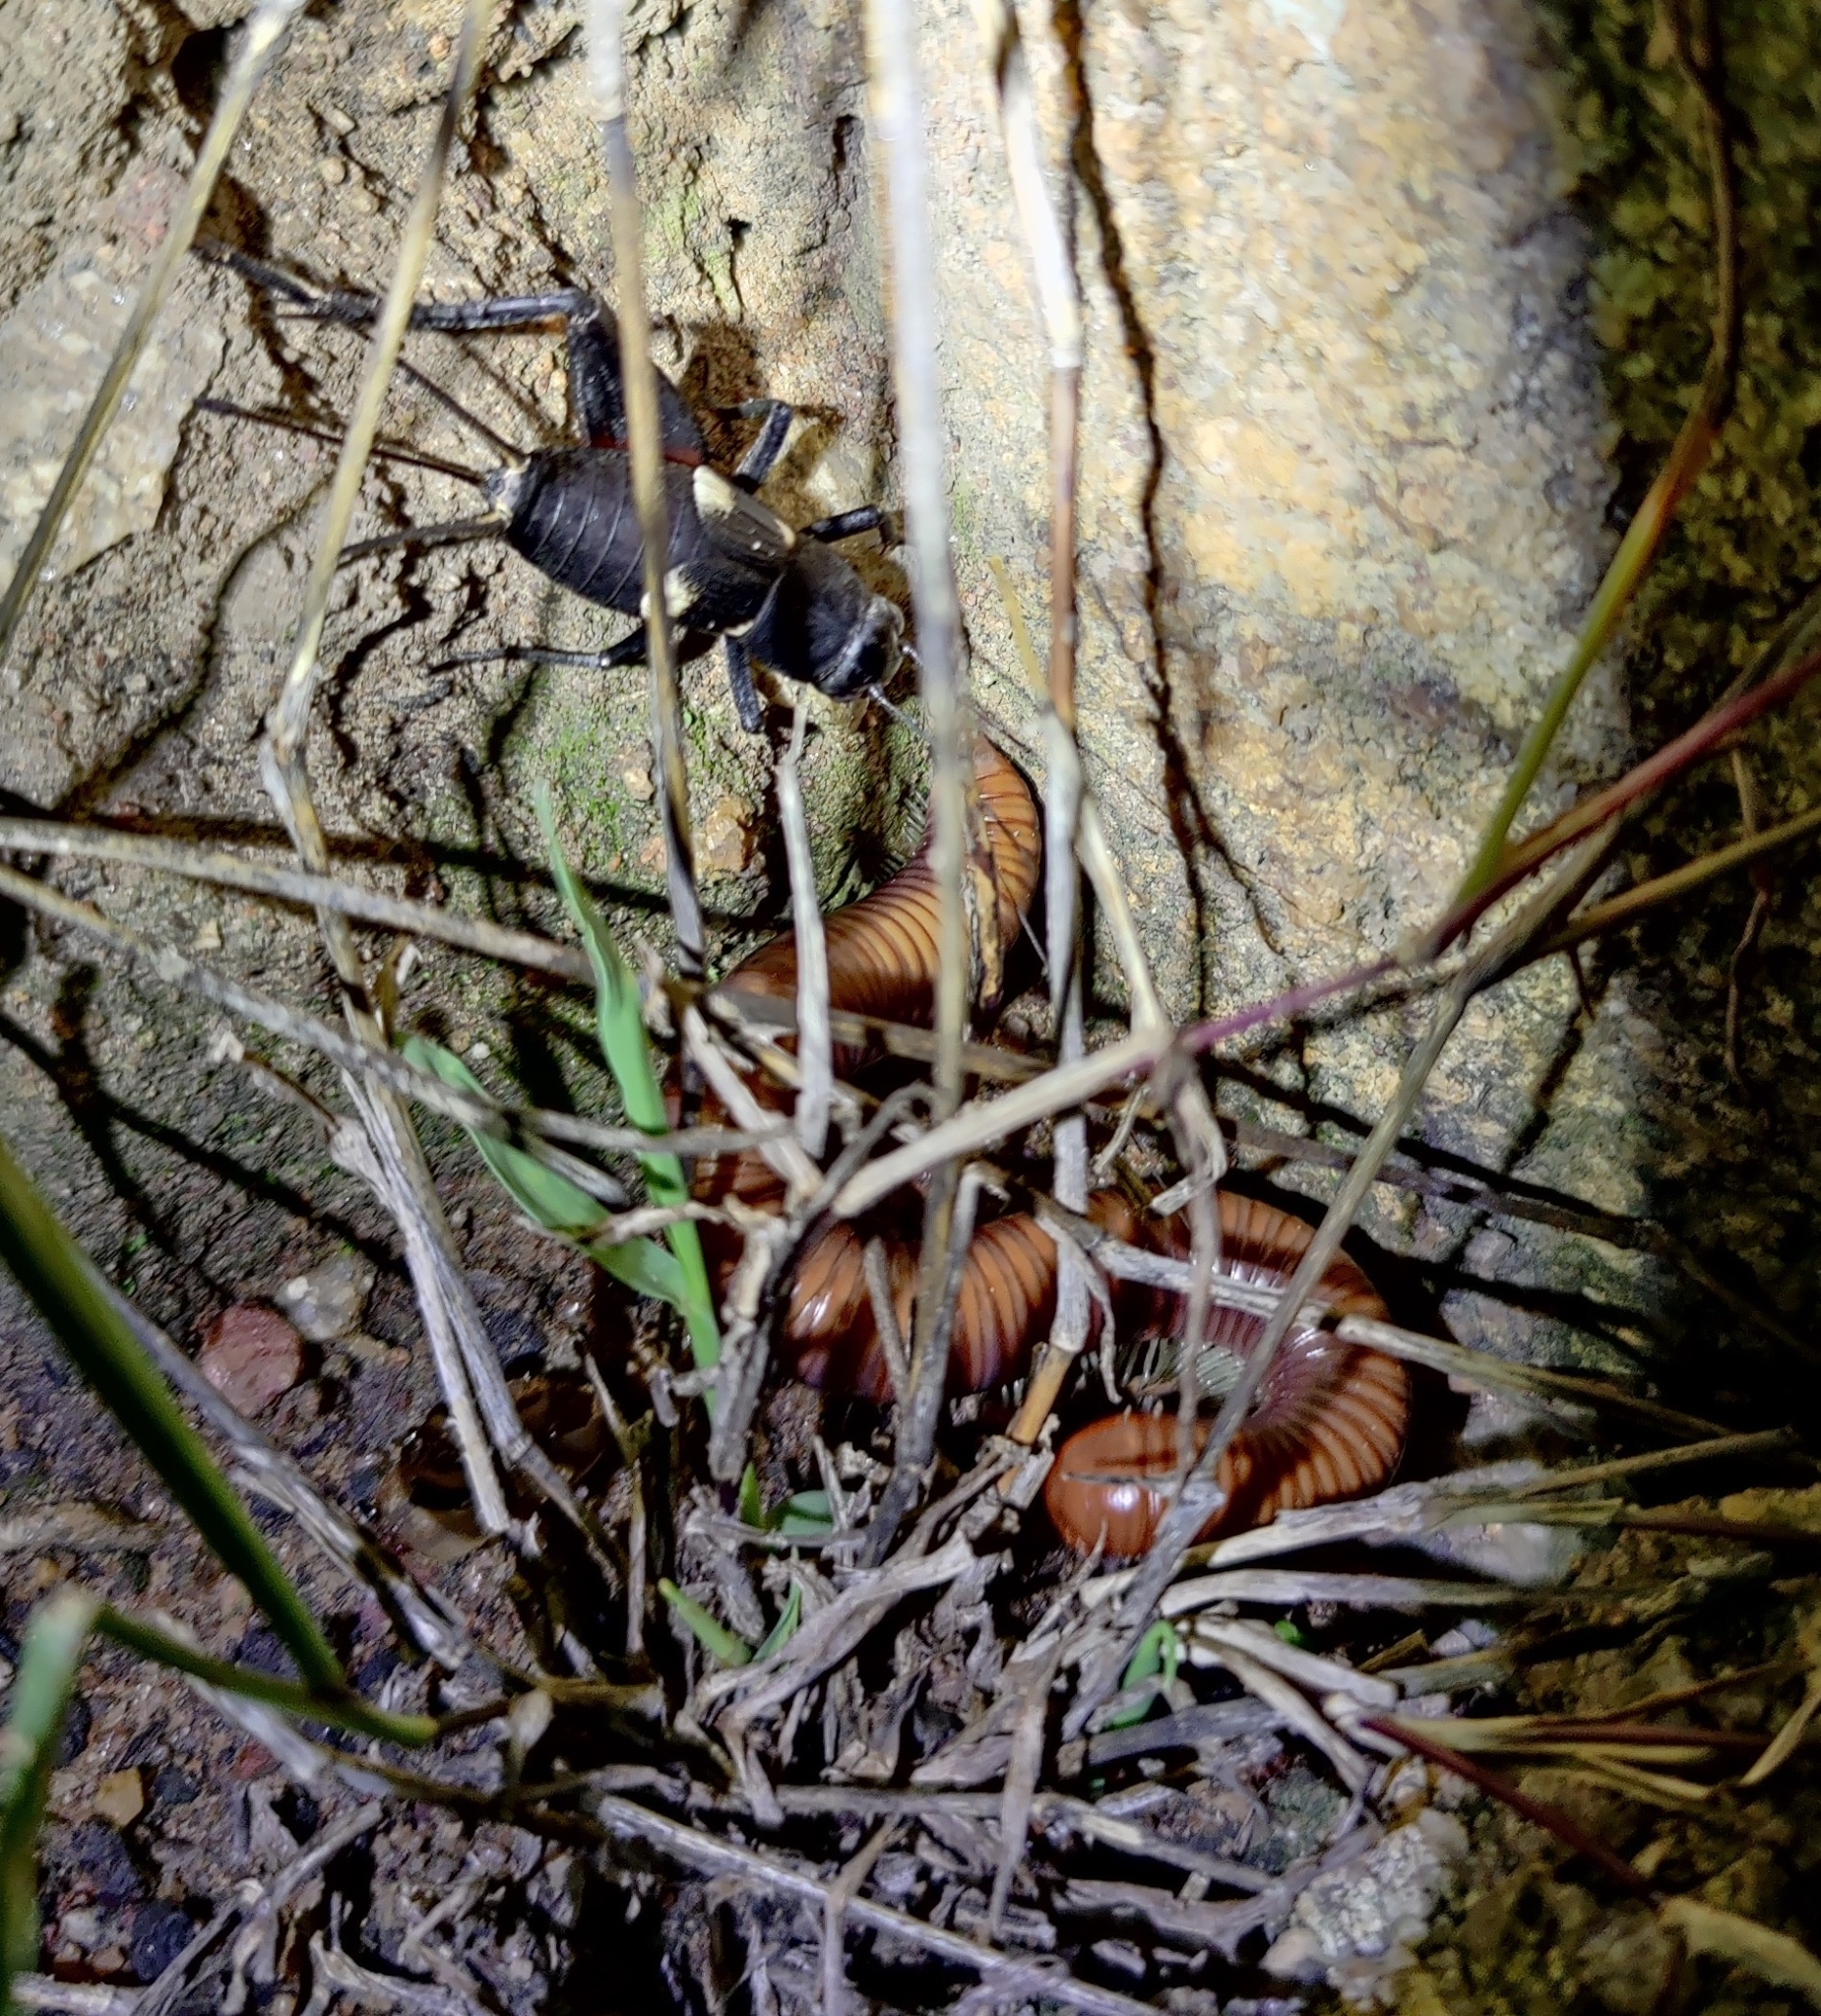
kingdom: Animalia
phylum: Arthropoda
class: Insecta
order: Orthoptera
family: Gryllidae
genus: Gryllus
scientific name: Gryllus quadrimaculatus
